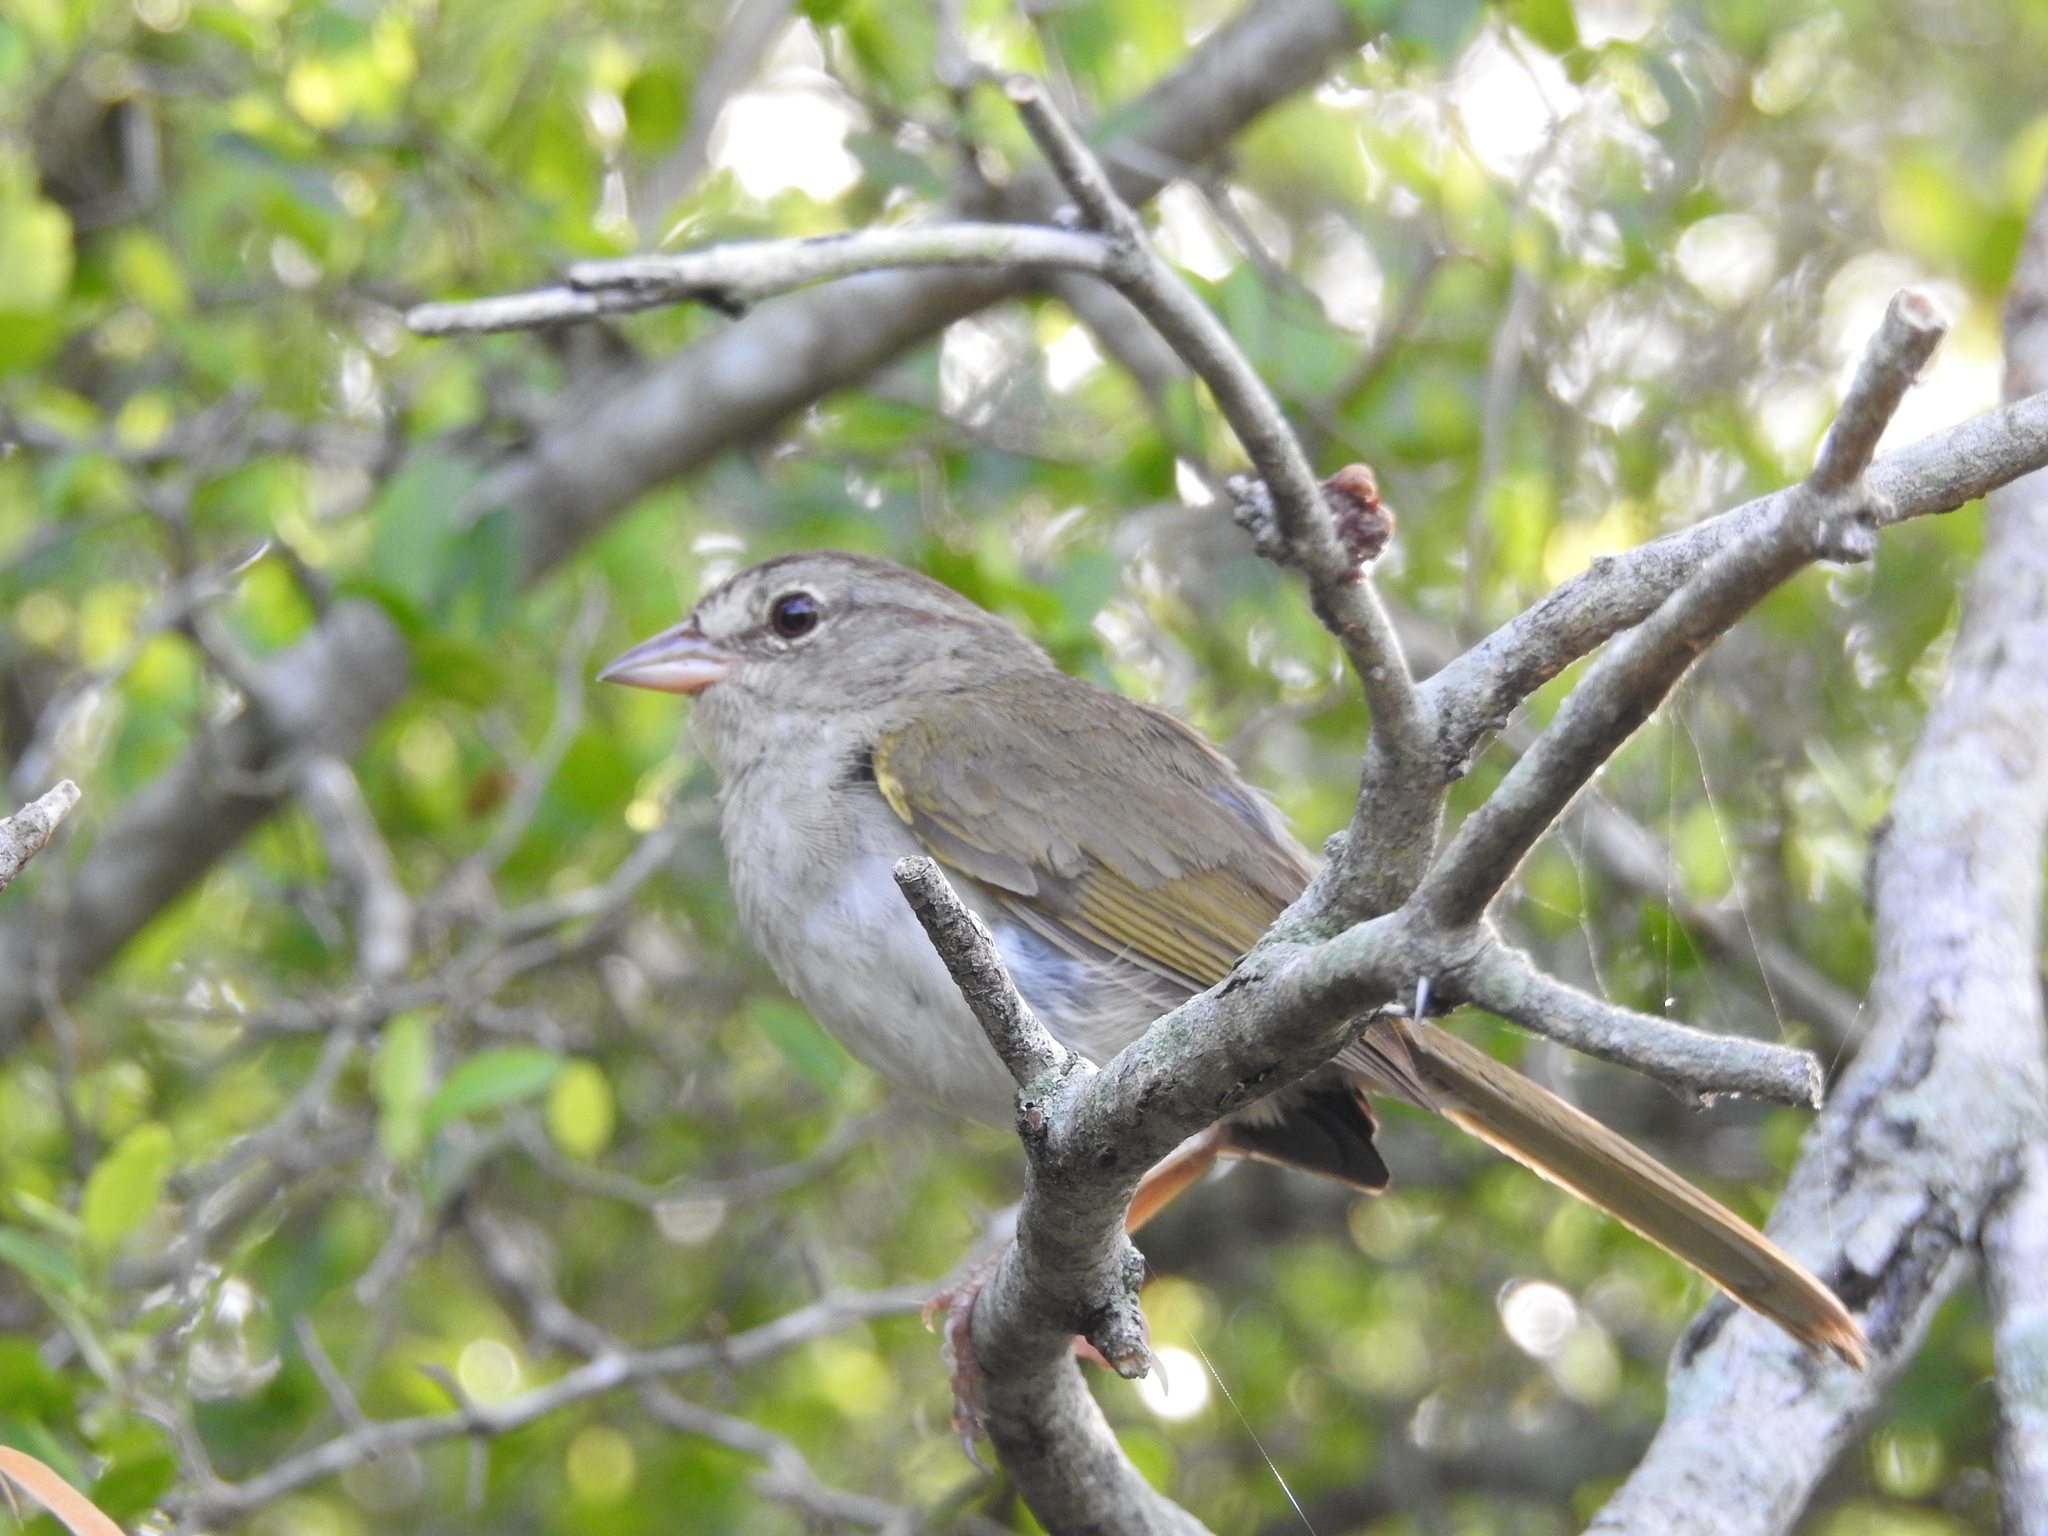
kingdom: Animalia
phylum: Chordata
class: Aves
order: Passeriformes
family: Passerellidae
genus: Arremonops
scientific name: Arremonops rufivirgatus
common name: Olive sparrow
